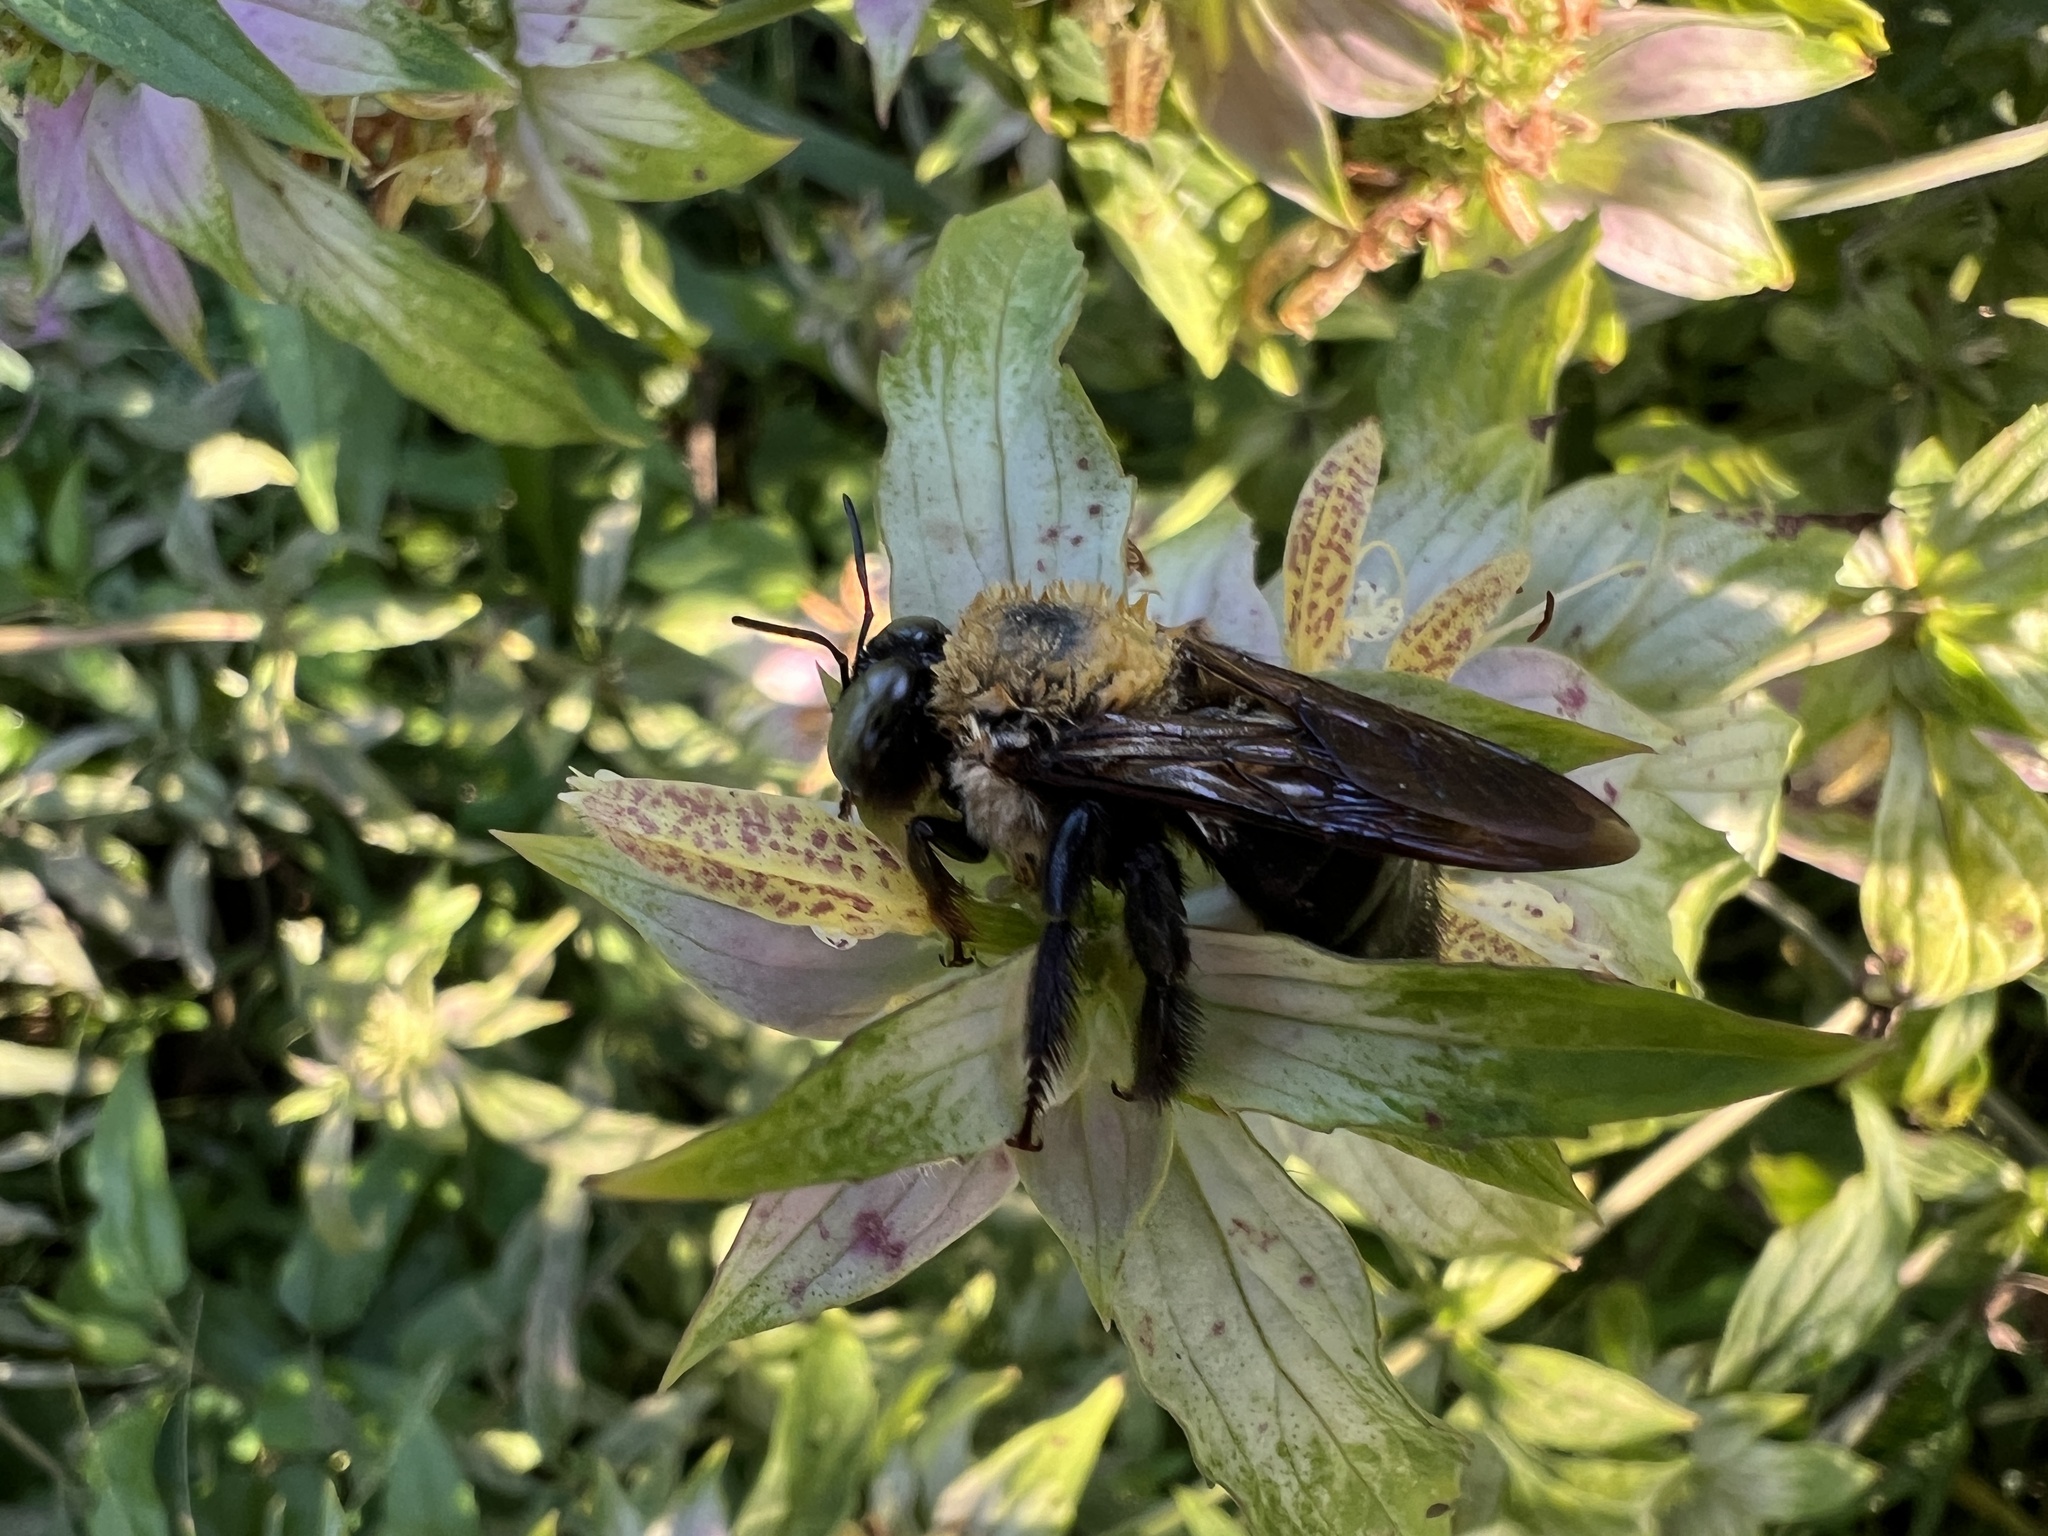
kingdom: Animalia
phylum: Arthropoda
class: Insecta
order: Hymenoptera
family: Apidae
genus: Xylocopa
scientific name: Xylocopa virginica
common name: Carpenter bee
